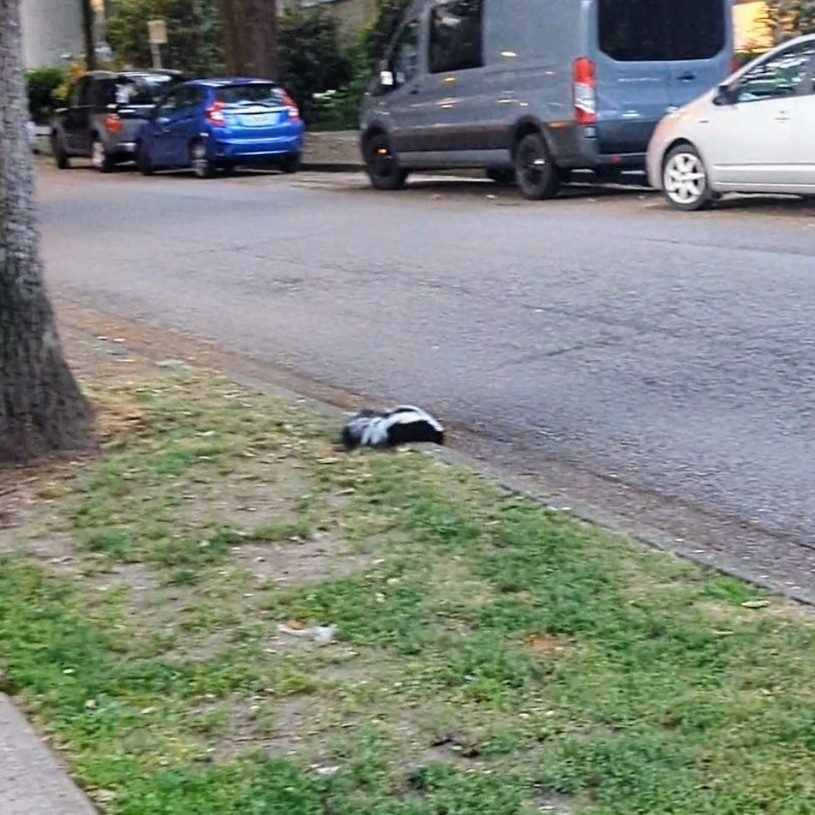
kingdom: Animalia
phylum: Chordata
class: Mammalia
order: Carnivora
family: Mephitidae
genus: Mephitis
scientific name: Mephitis mephitis
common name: Striped skunk
